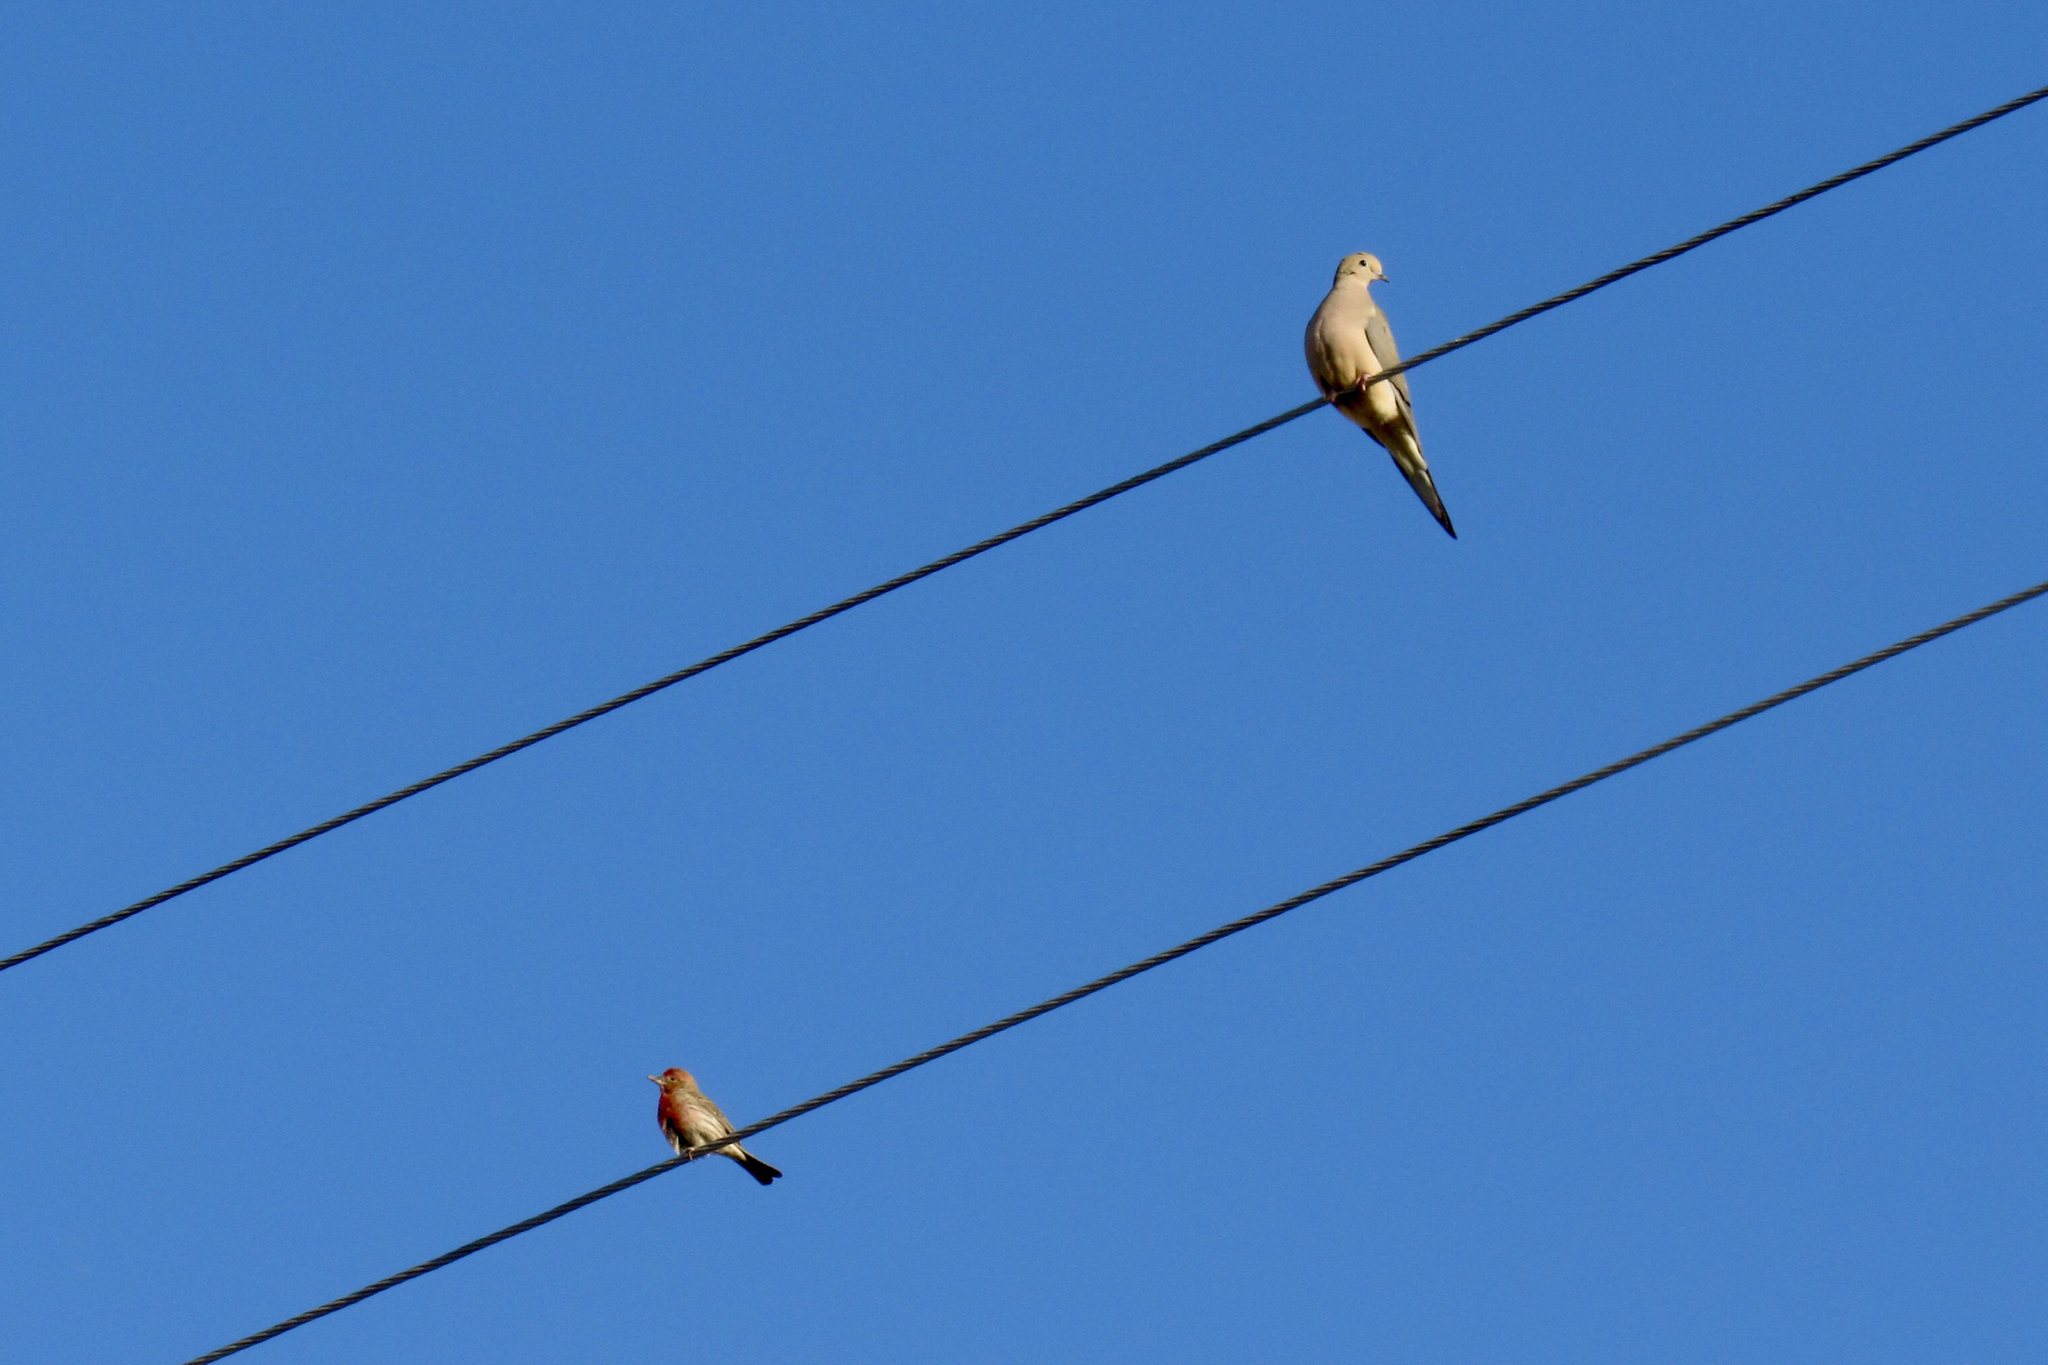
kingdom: Animalia
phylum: Chordata
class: Aves
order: Columbiformes
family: Columbidae
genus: Zenaida
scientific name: Zenaida macroura
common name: Mourning dove
